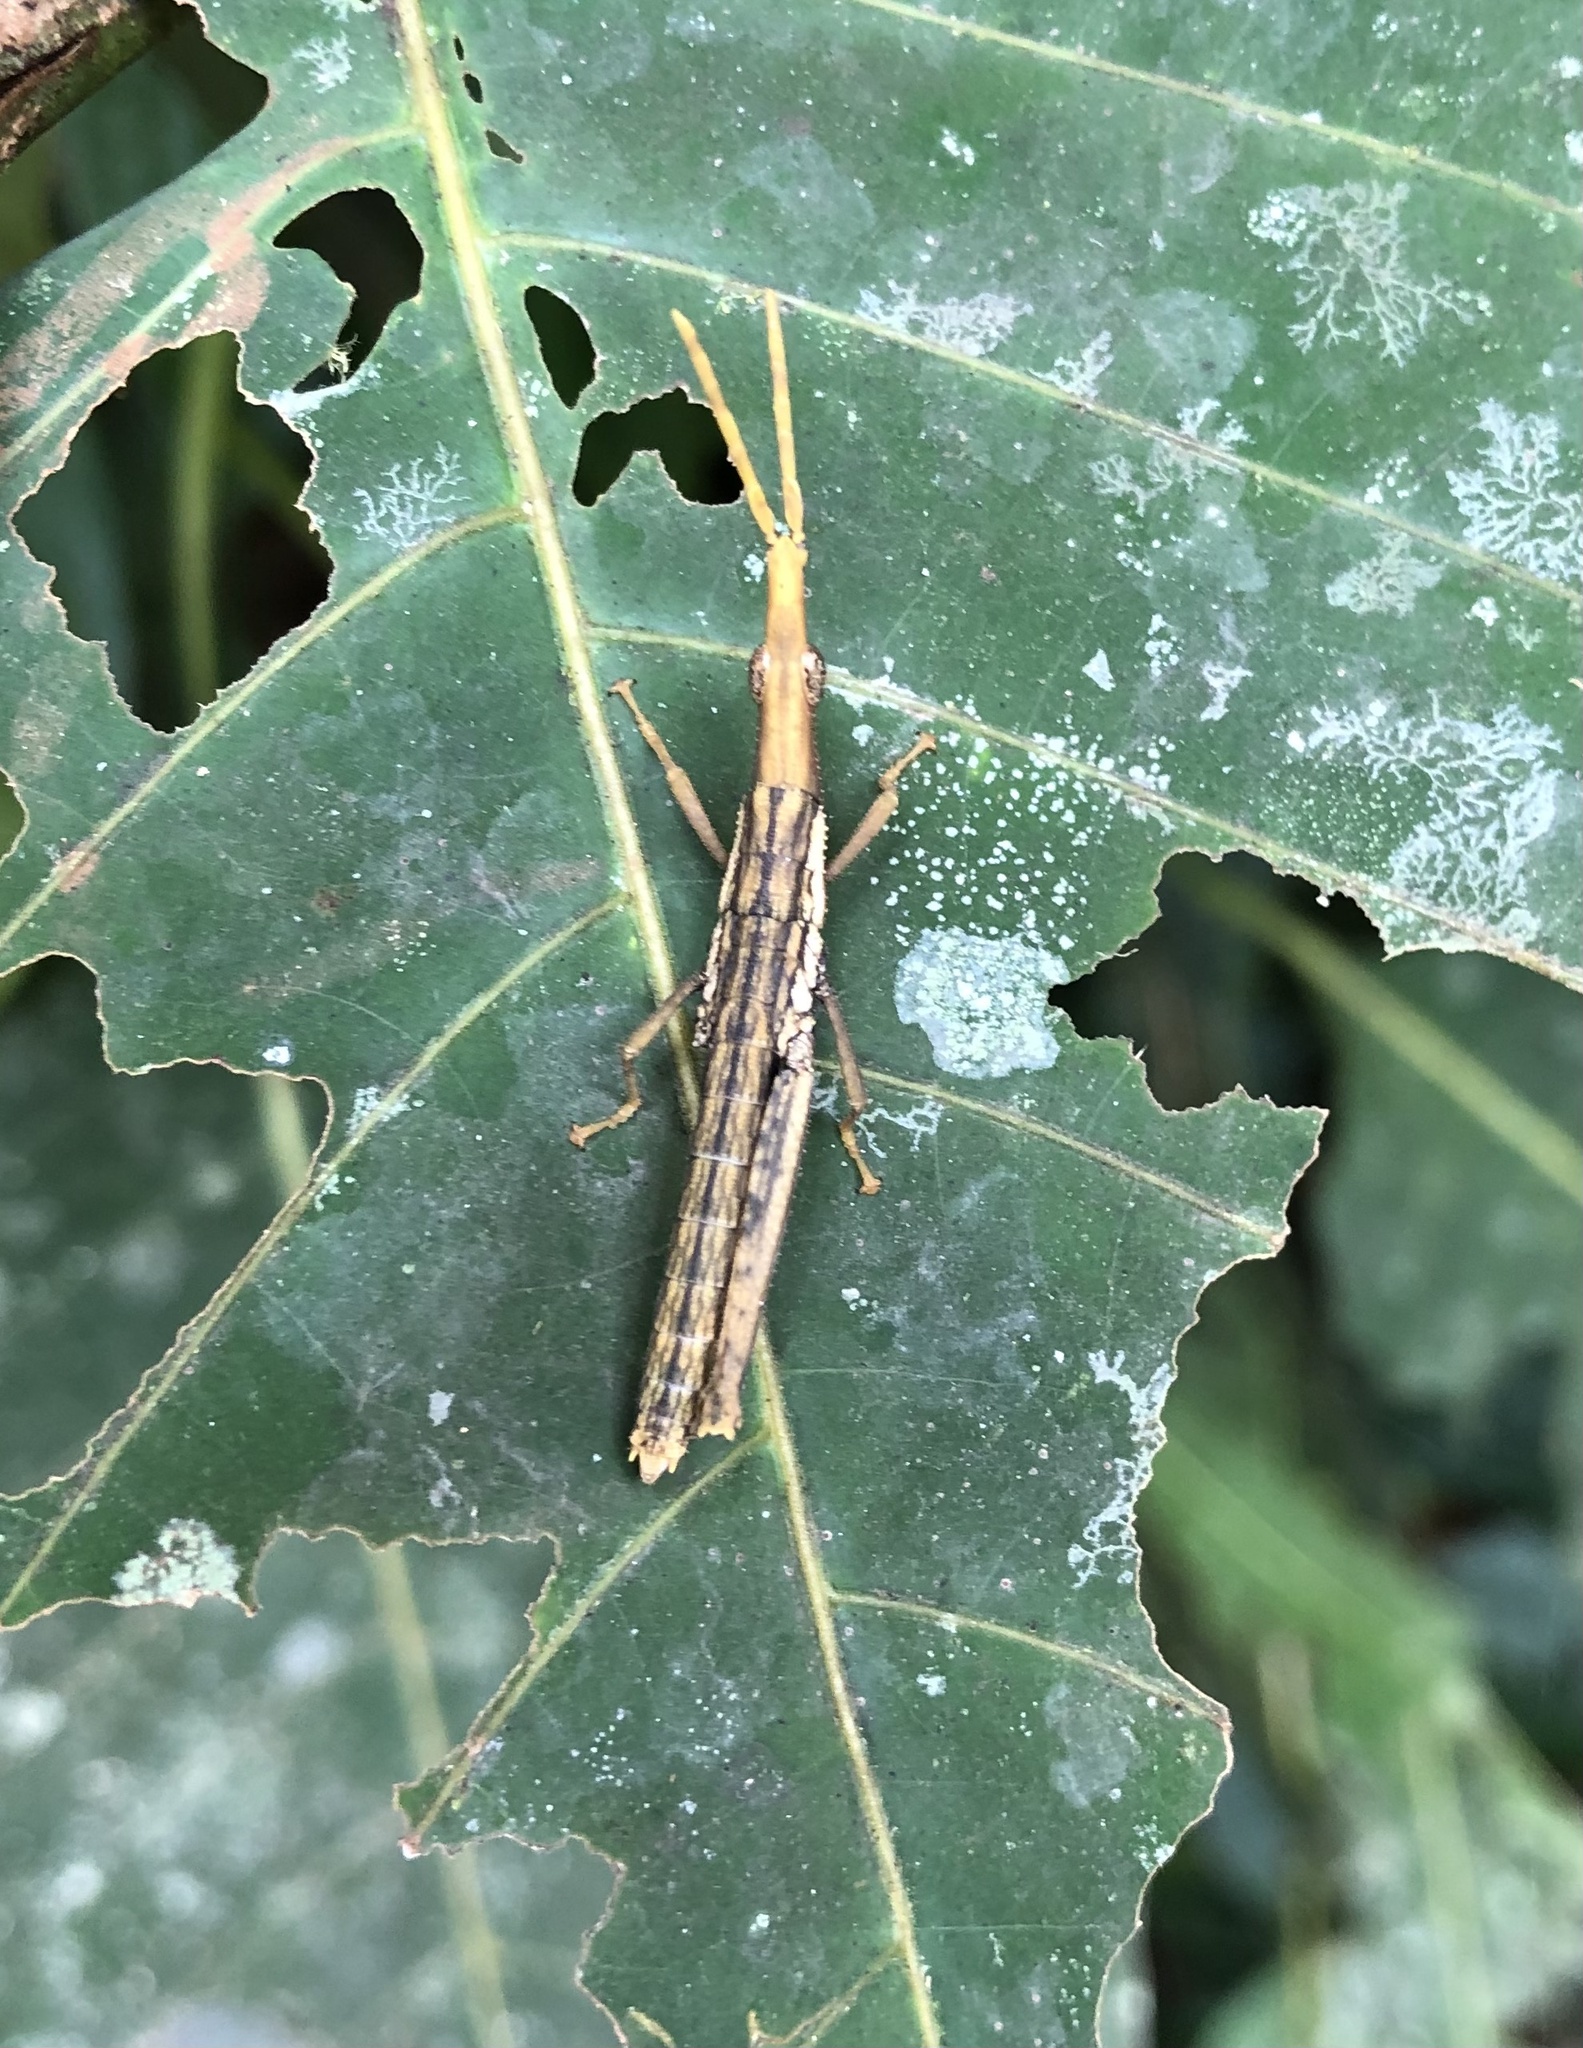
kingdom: Animalia
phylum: Arthropoda
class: Insecta
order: Orthoptera
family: Pyrgomorphidae
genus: Omura
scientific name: Omura congrua
